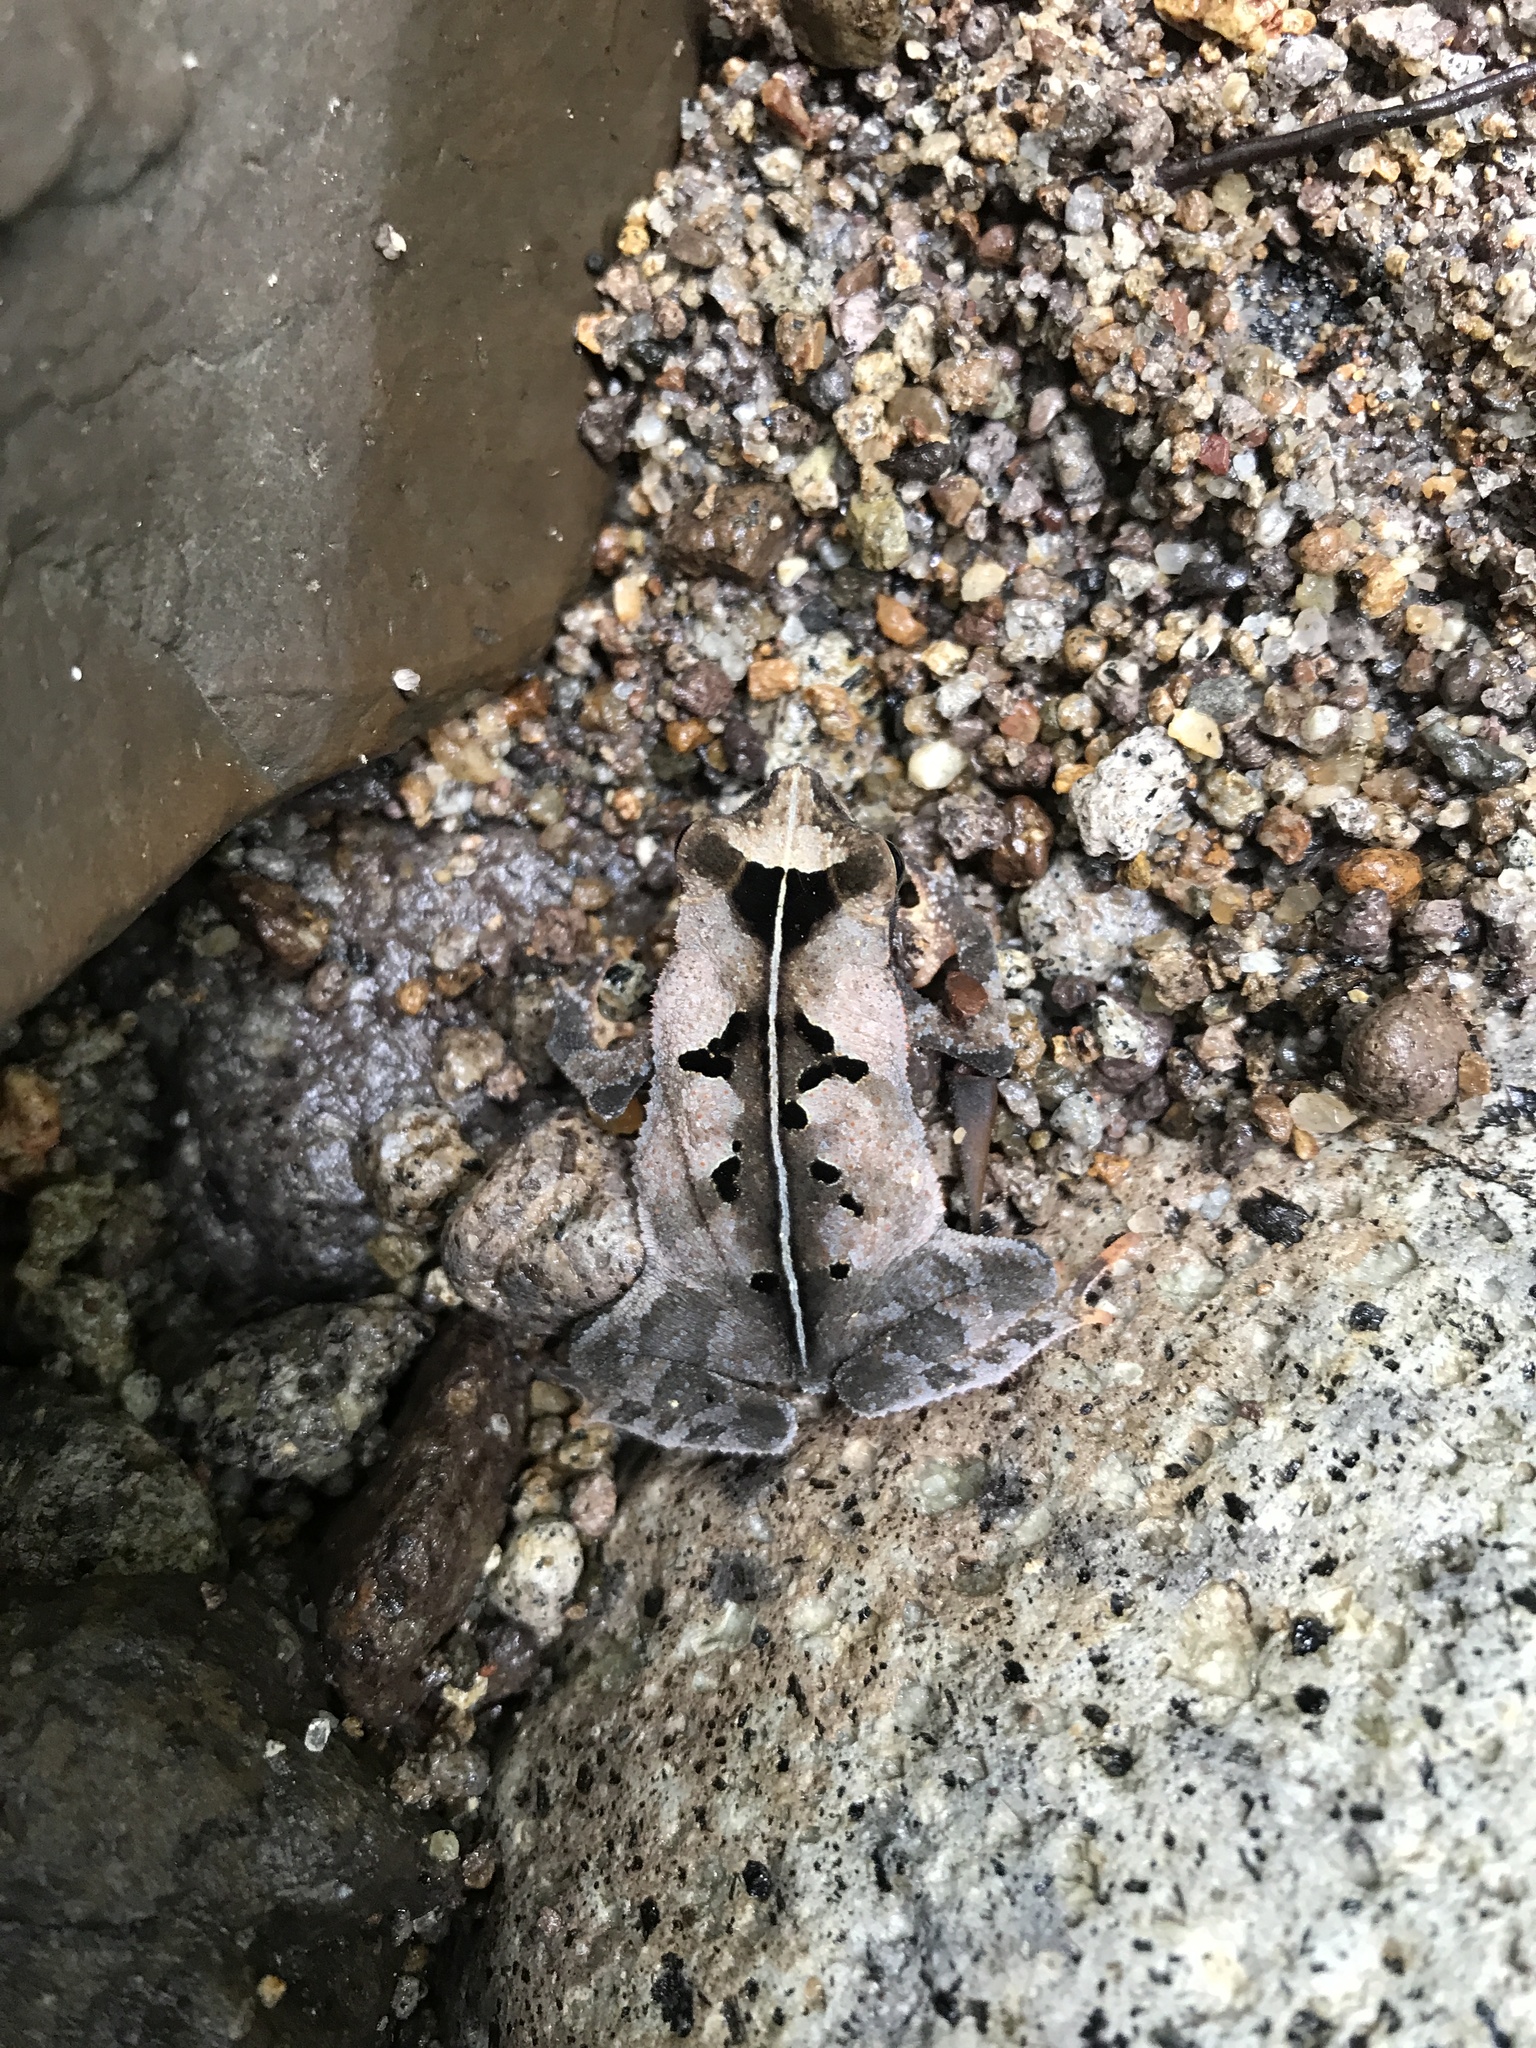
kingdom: Animalia
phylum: Chordata
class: Amphibia
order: Anura
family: Bufonidae
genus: Rhinella
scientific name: Rhinella alata
